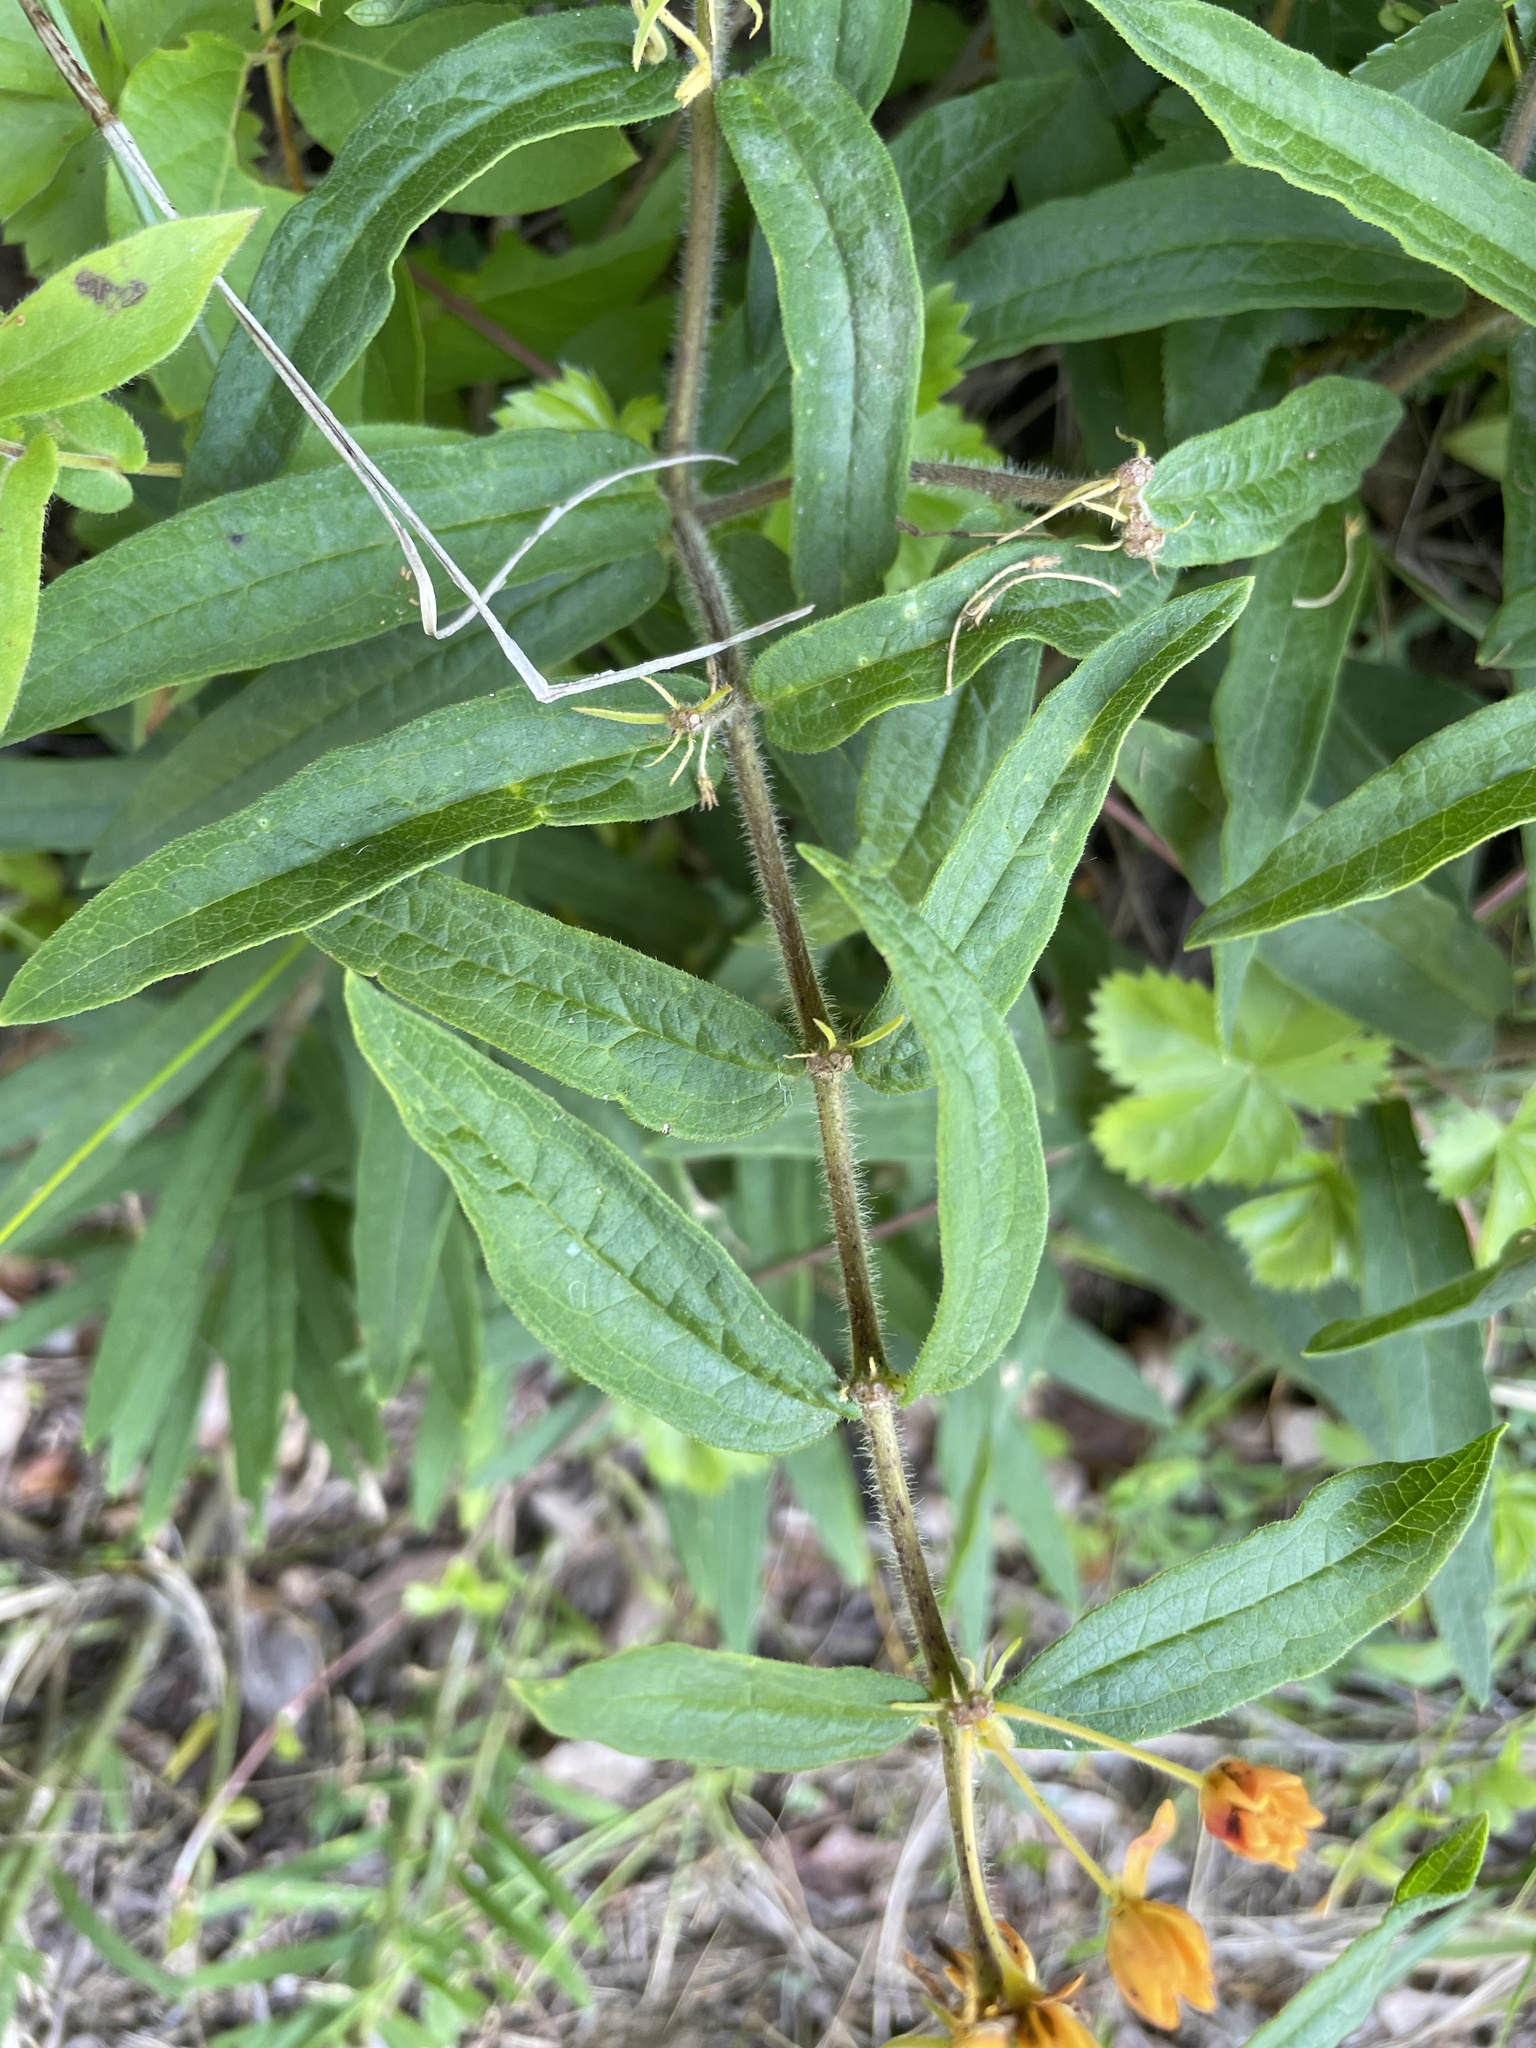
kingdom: Plantae
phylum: Tracheophyta
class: Magnoliopsida
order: Gentianales
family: Apocynaceae
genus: Asclepias
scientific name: Asclepias tuberosa
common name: Butterfly milkweed
